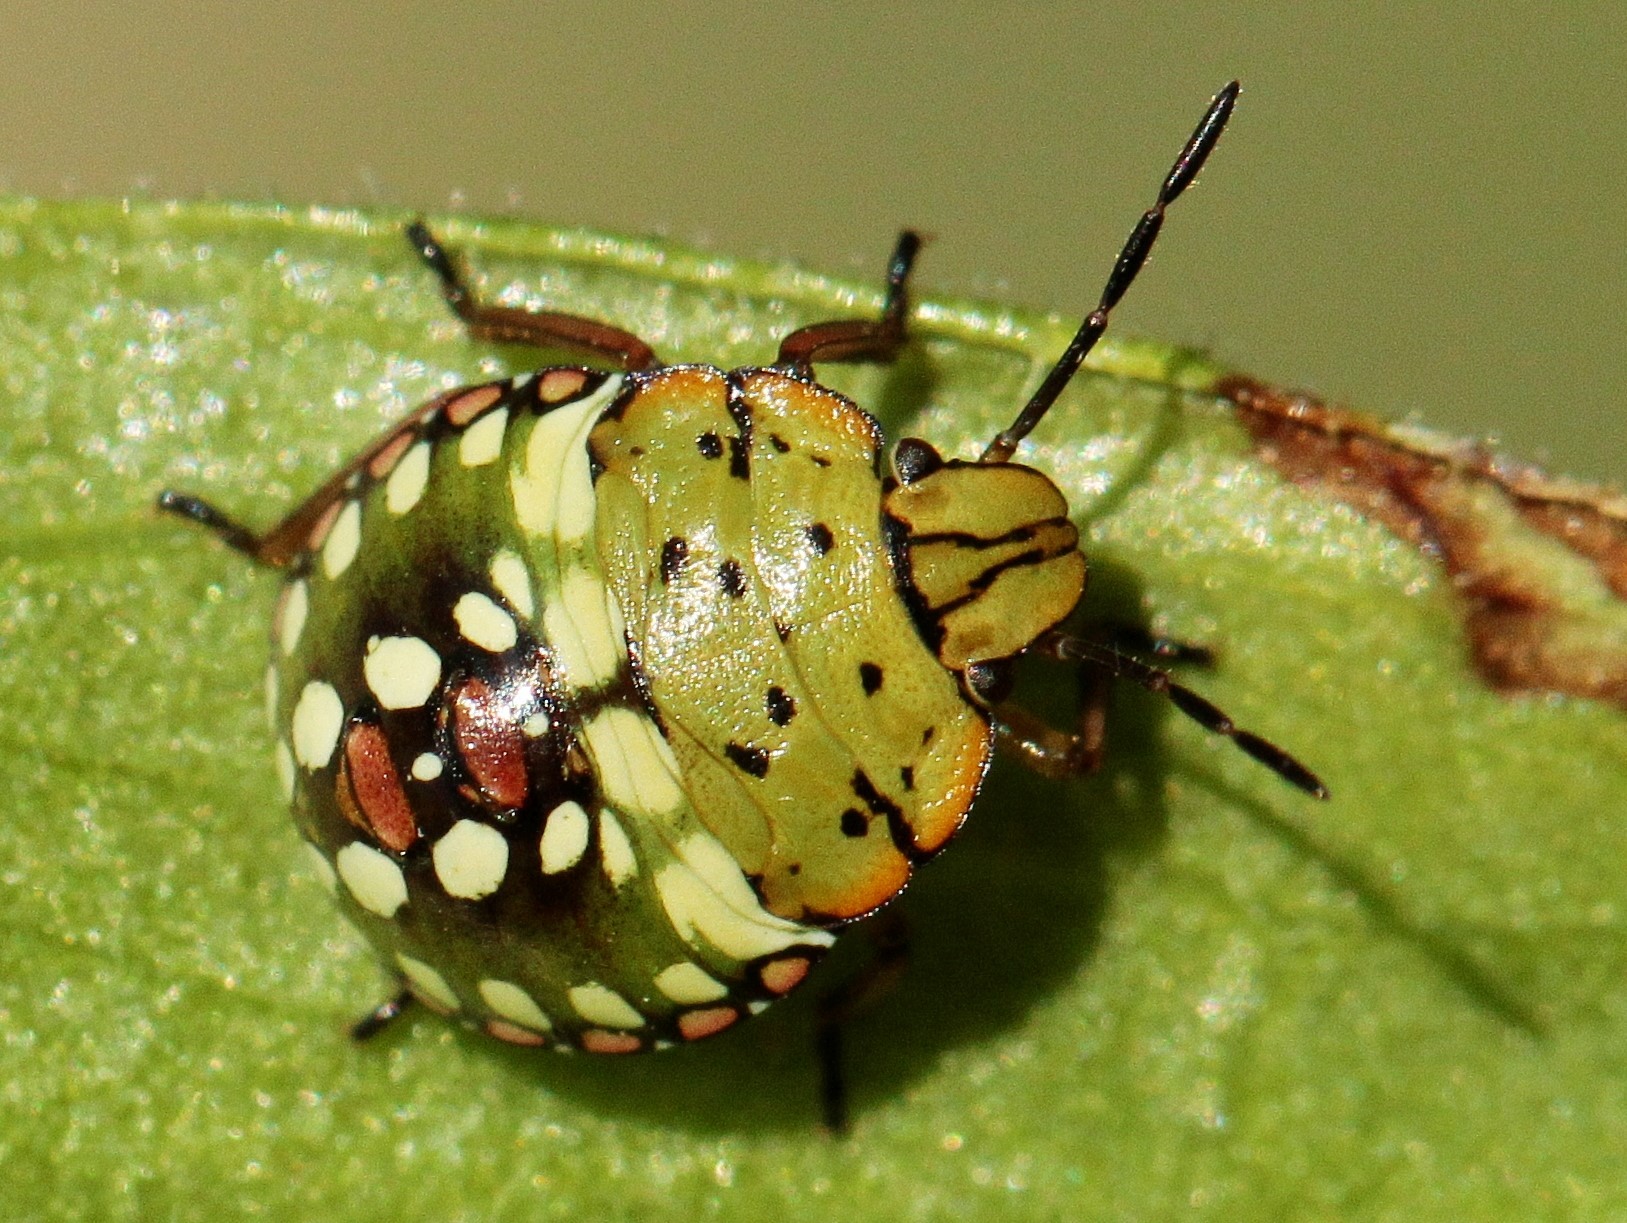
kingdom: Animalia
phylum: Arthropoda
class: Insecta
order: Hemiptera
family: Pentatomidae
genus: Nezara
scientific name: Nezara viridula
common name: Southern green stink bug
